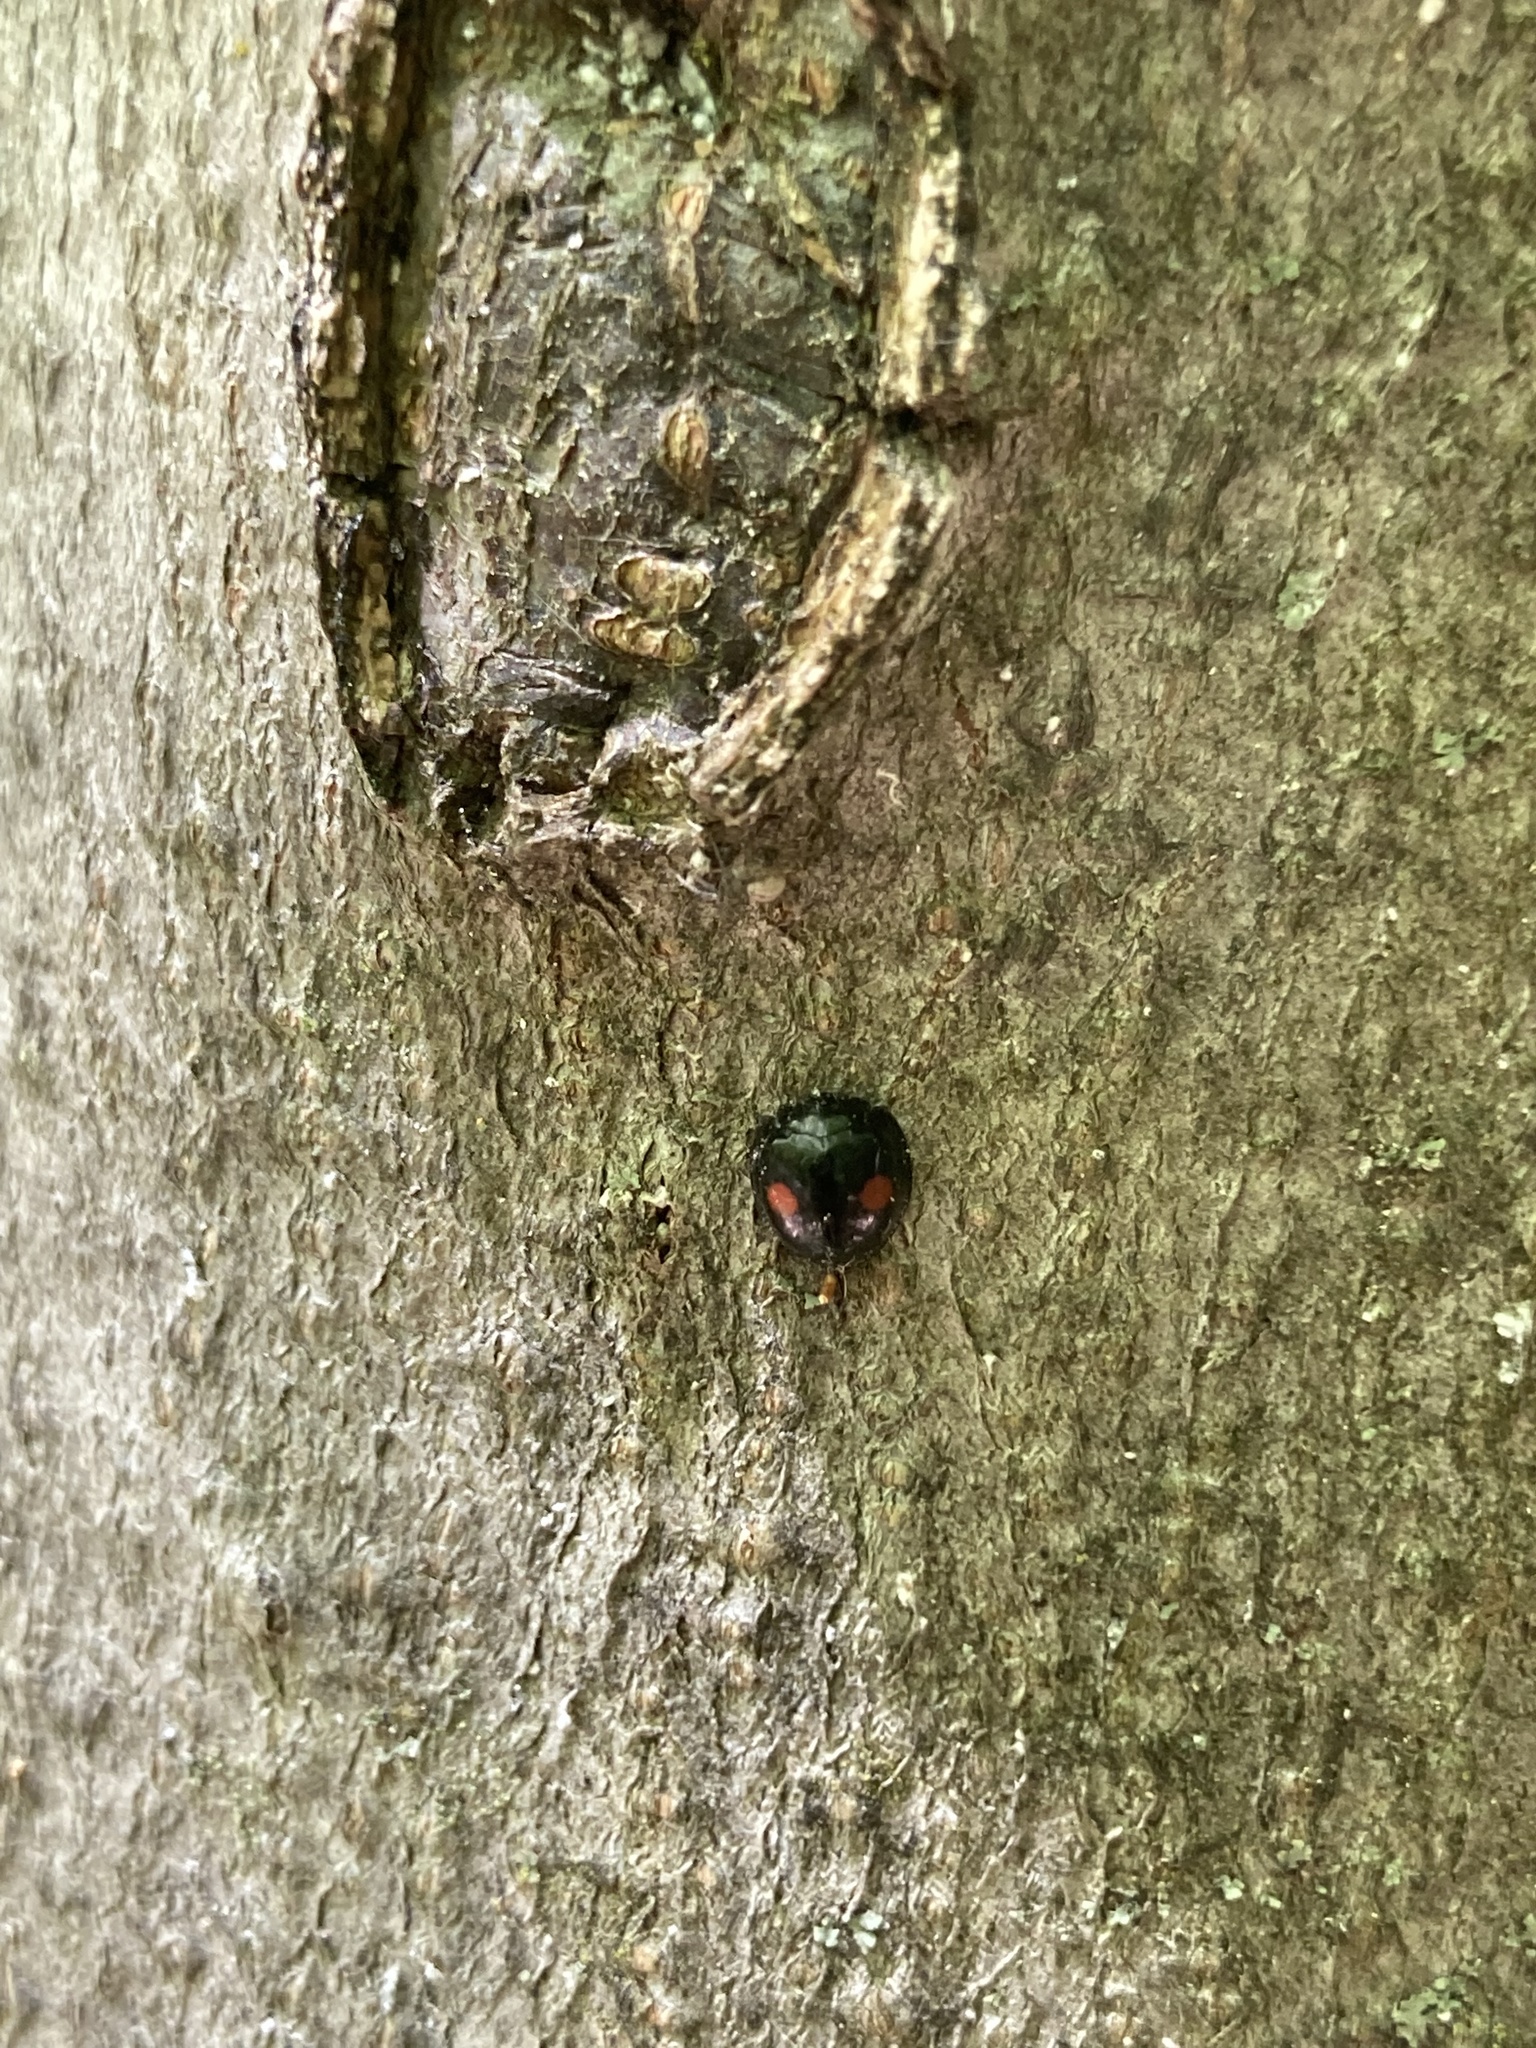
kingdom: Animalia
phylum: Arthropoda
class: Insecta
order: Coleoptera
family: Coccinellidae
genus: Chilocorus
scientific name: Chilocorus stigma
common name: Twicestabbed lady beetle
